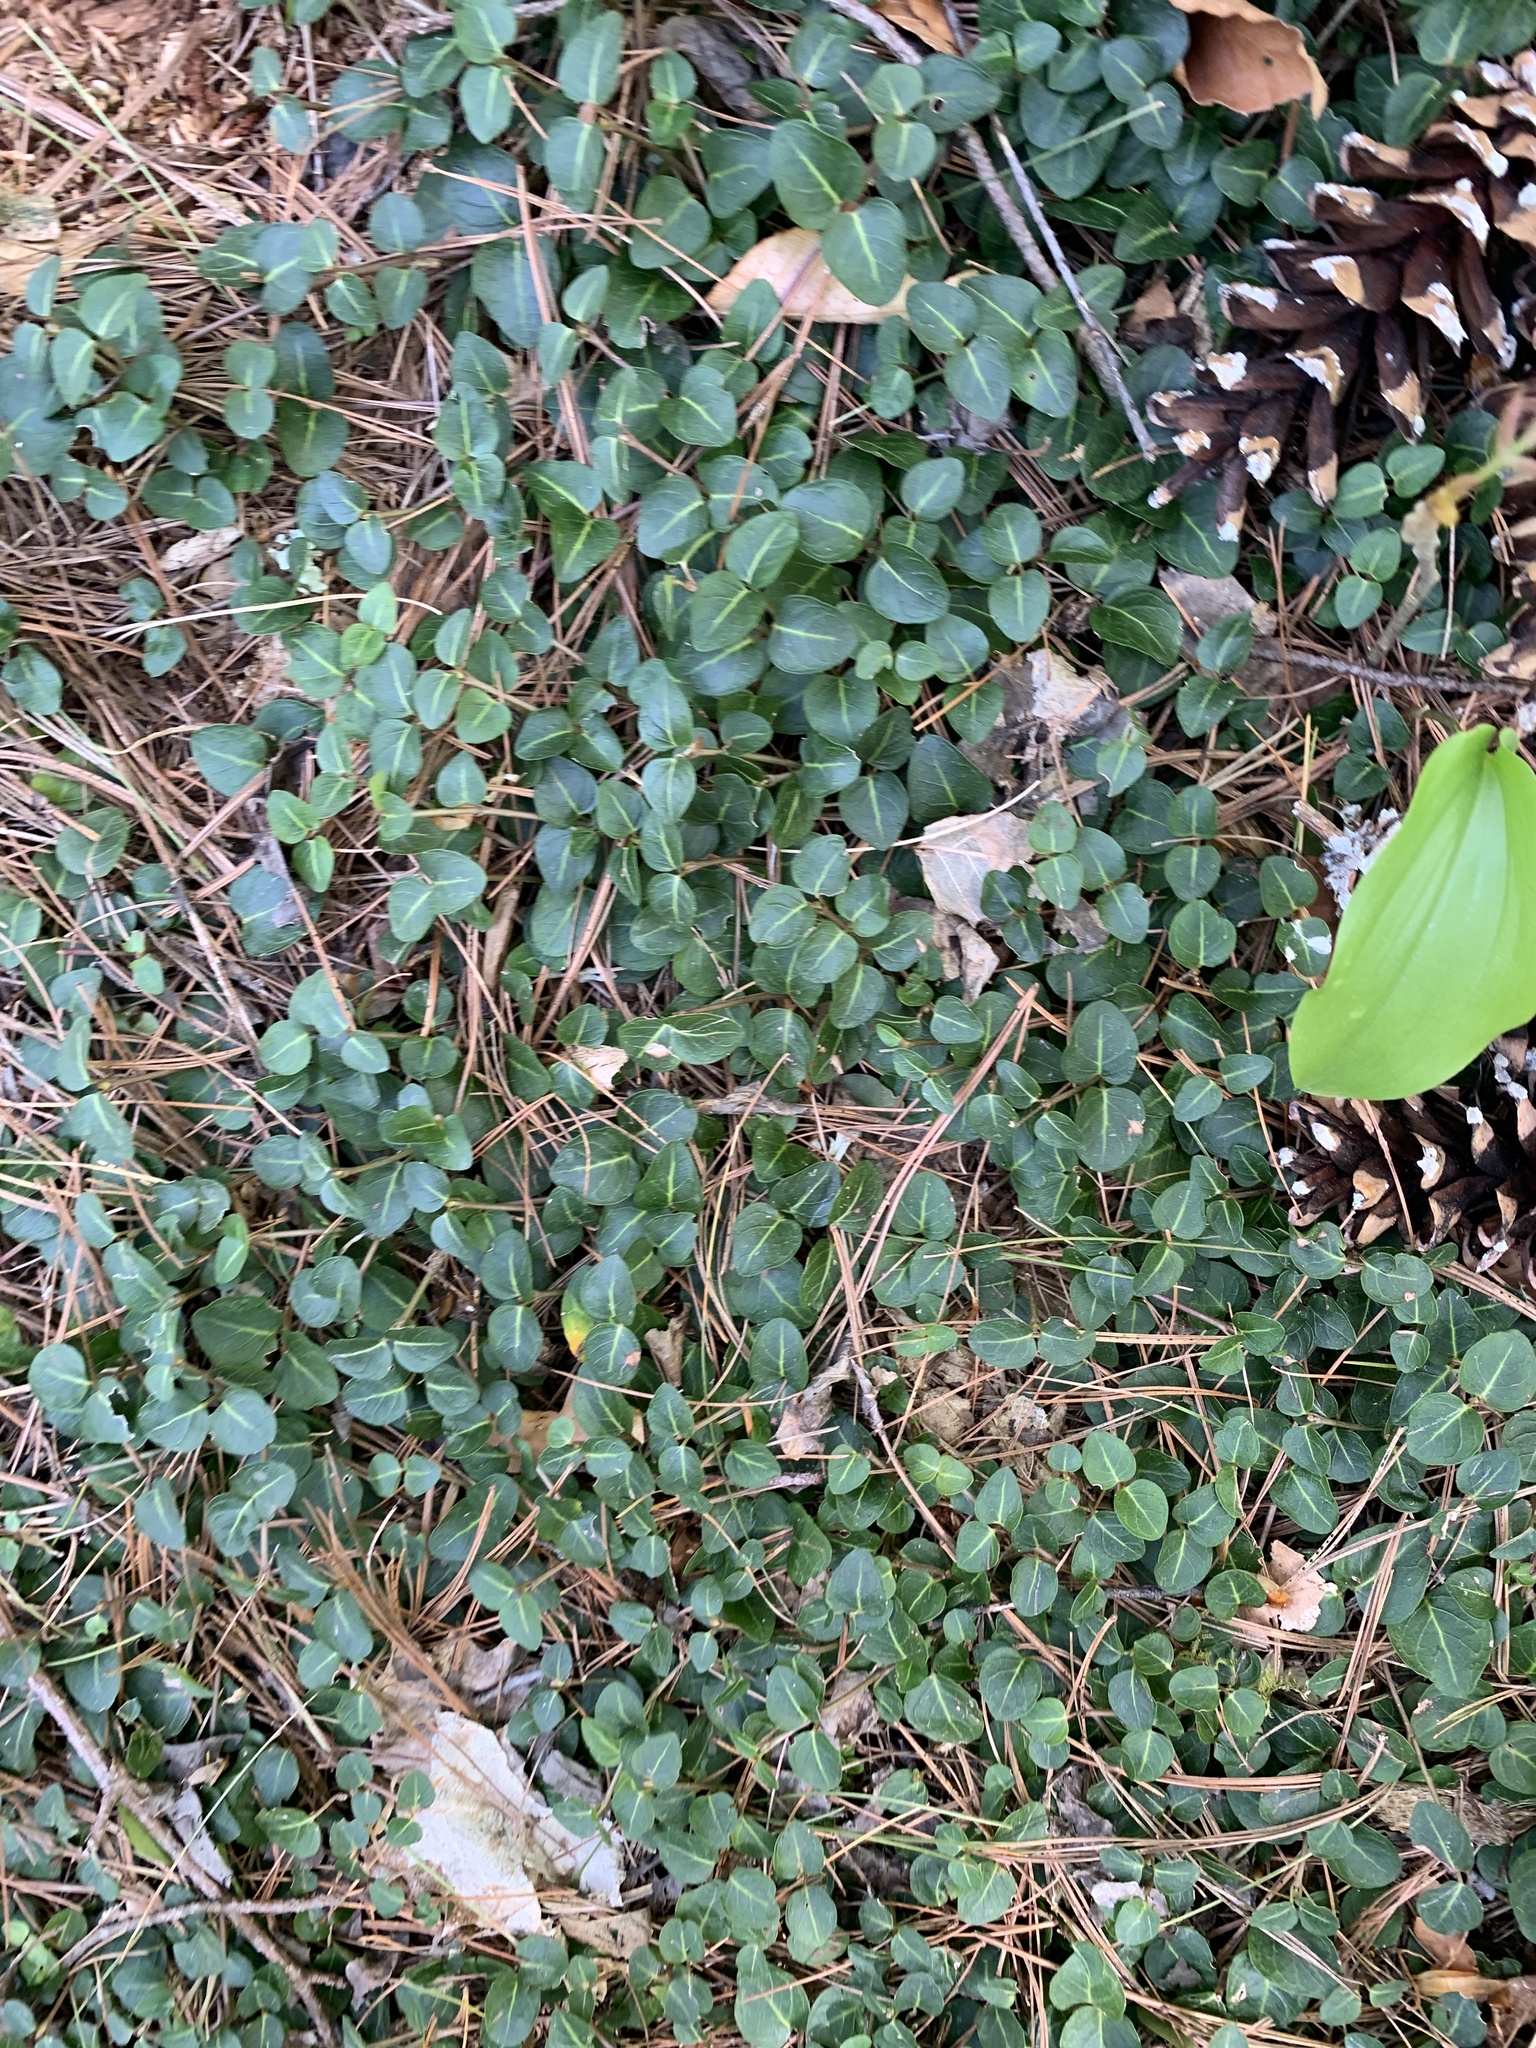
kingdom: Plantae
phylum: Tracheophyta
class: Magnoliopsida
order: Gentianales
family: Rubiaceae
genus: Mitchella
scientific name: Mitchella repens
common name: Partridge-berry
